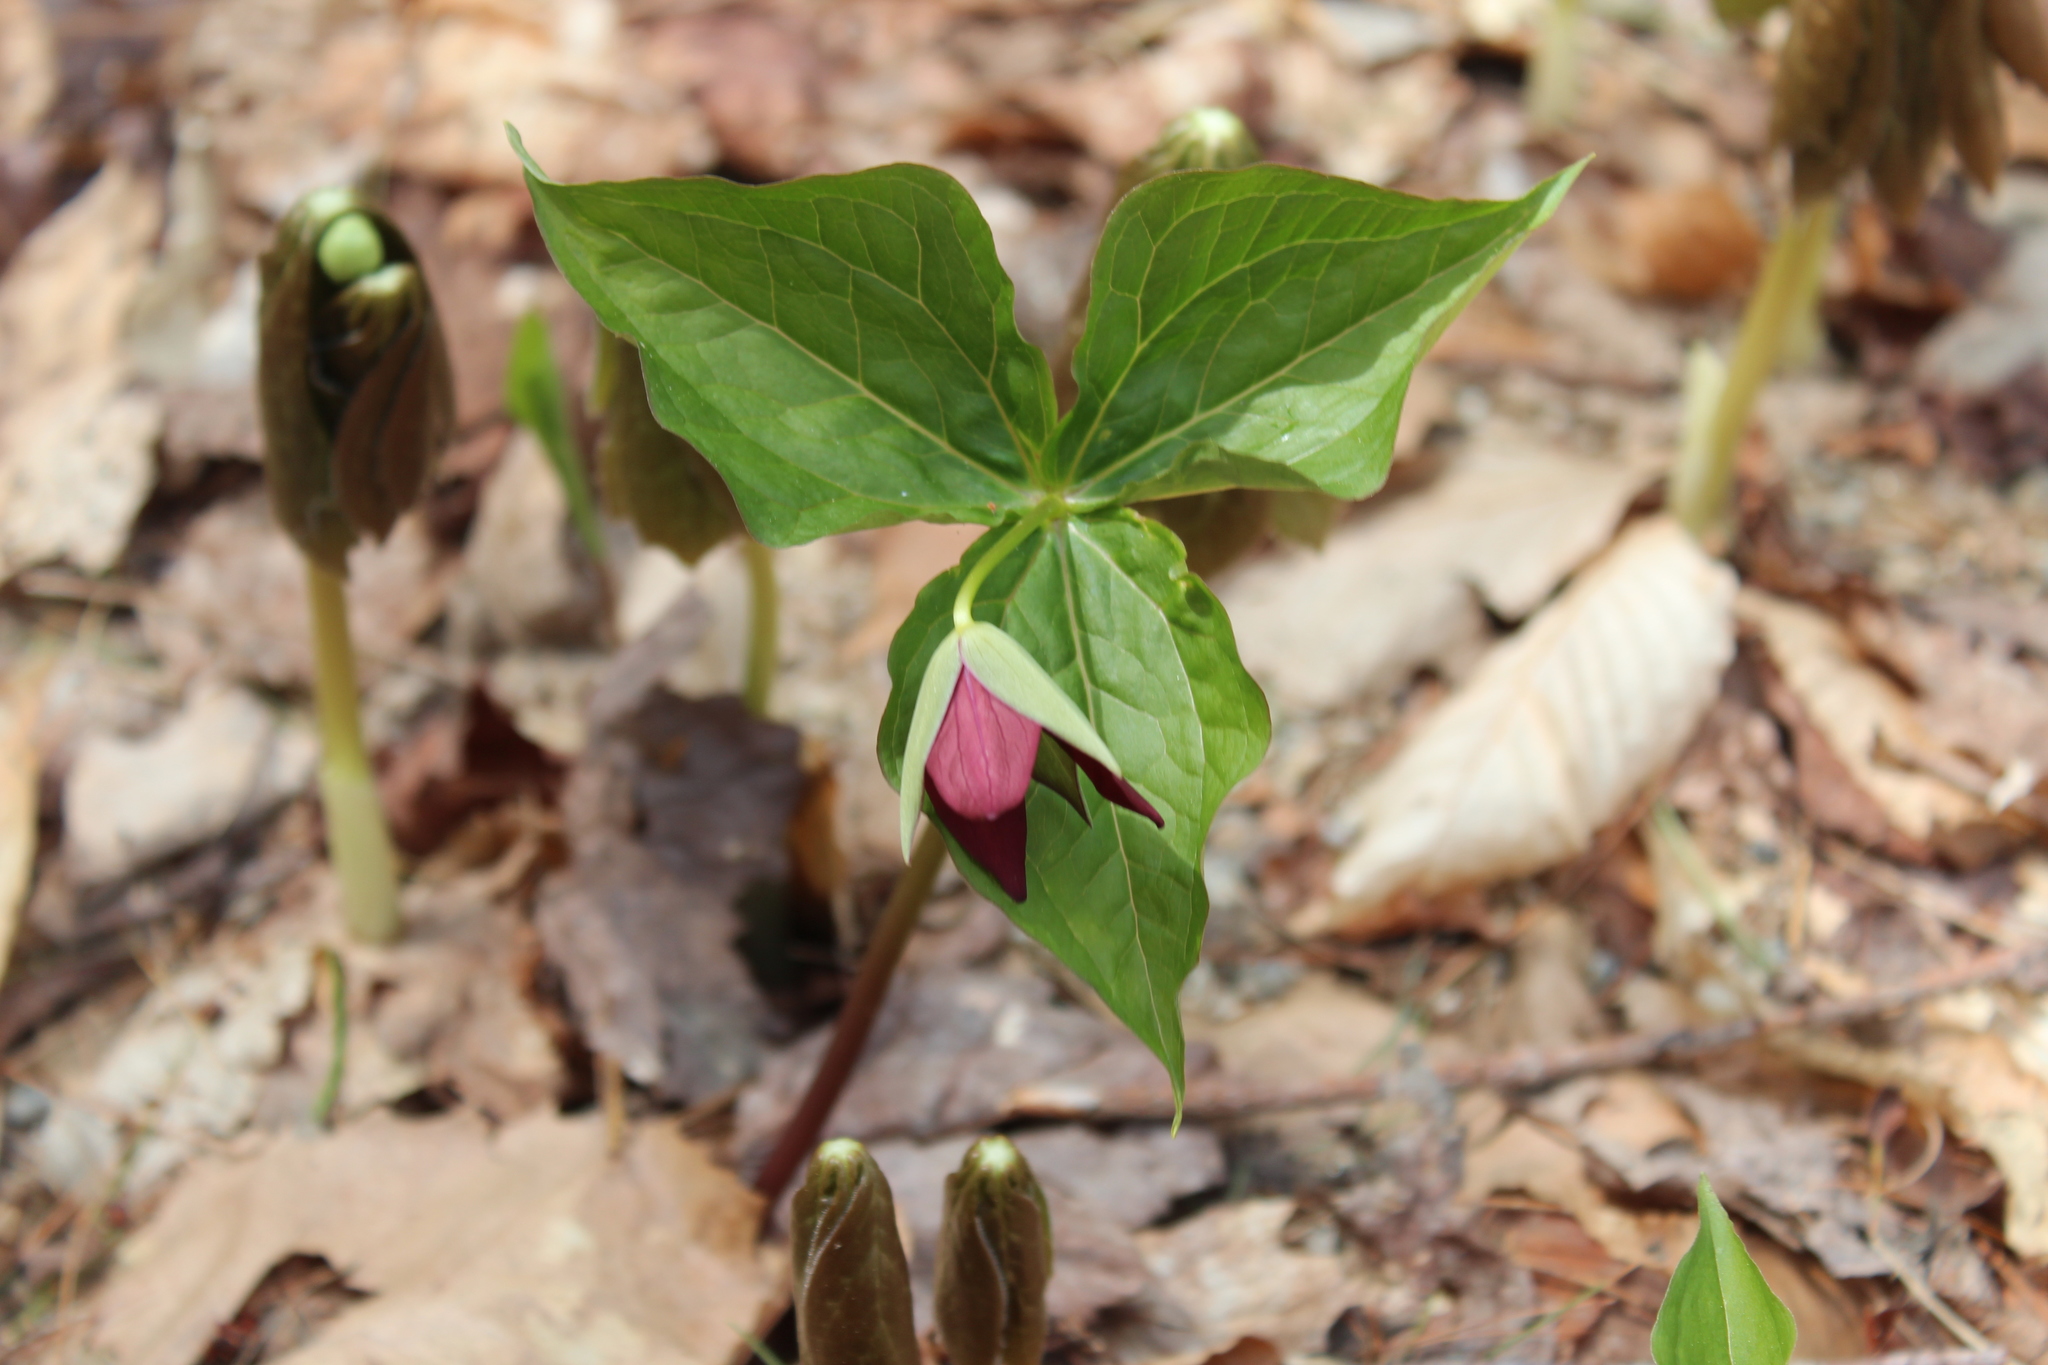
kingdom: Plantae
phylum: Tracheophyta
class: Liliopsida
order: Liliales
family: Melanthiaceae
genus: Trillium
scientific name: Trillium erectum
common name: Purple trillium
